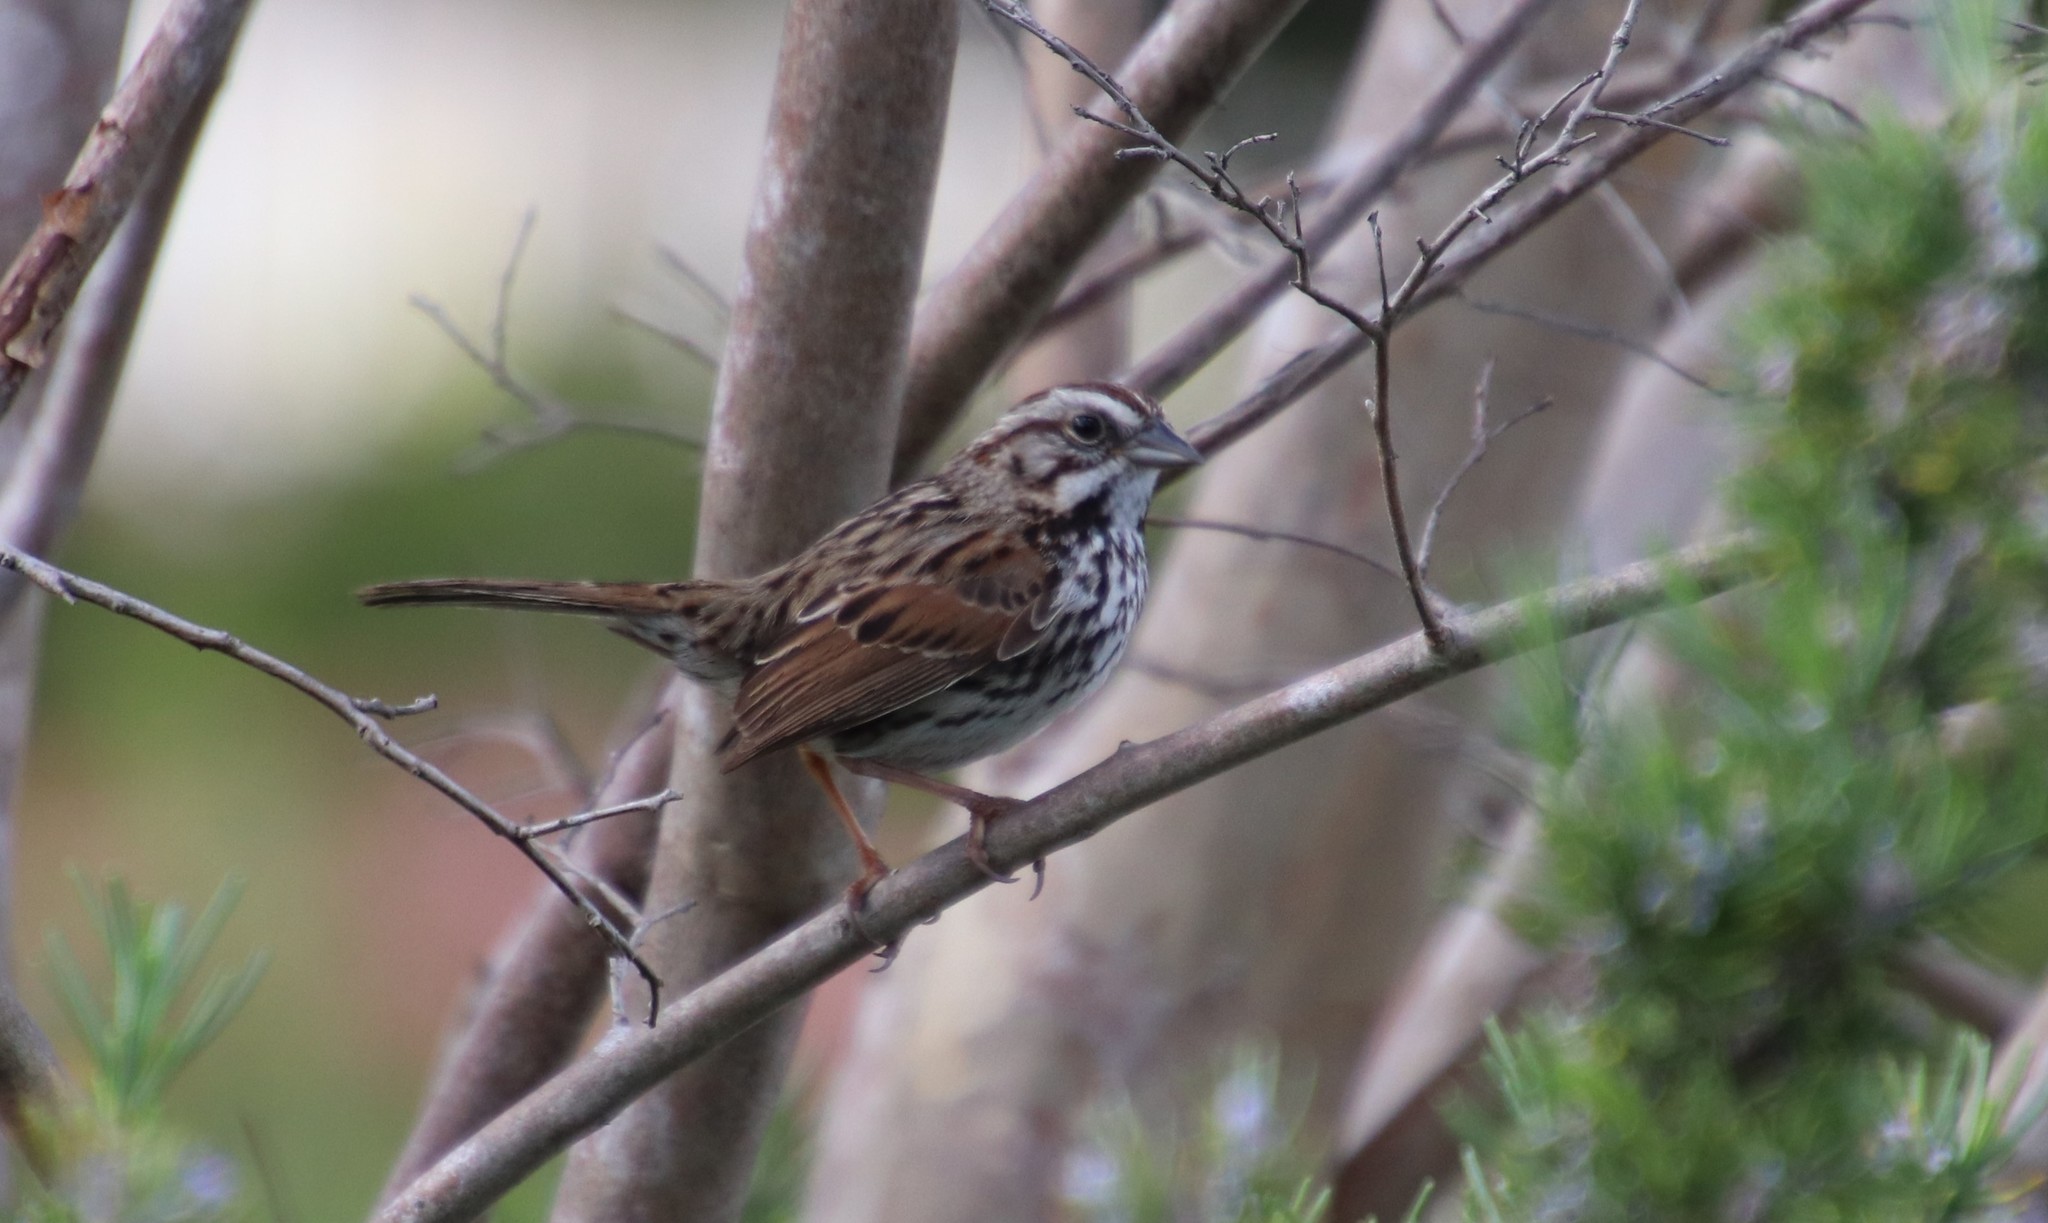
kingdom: Animalia
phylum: Chordata
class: Aves
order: Passeriformes
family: Passerellidae
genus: Melospiza
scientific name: Melospiza melodia
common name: Song sparrow
